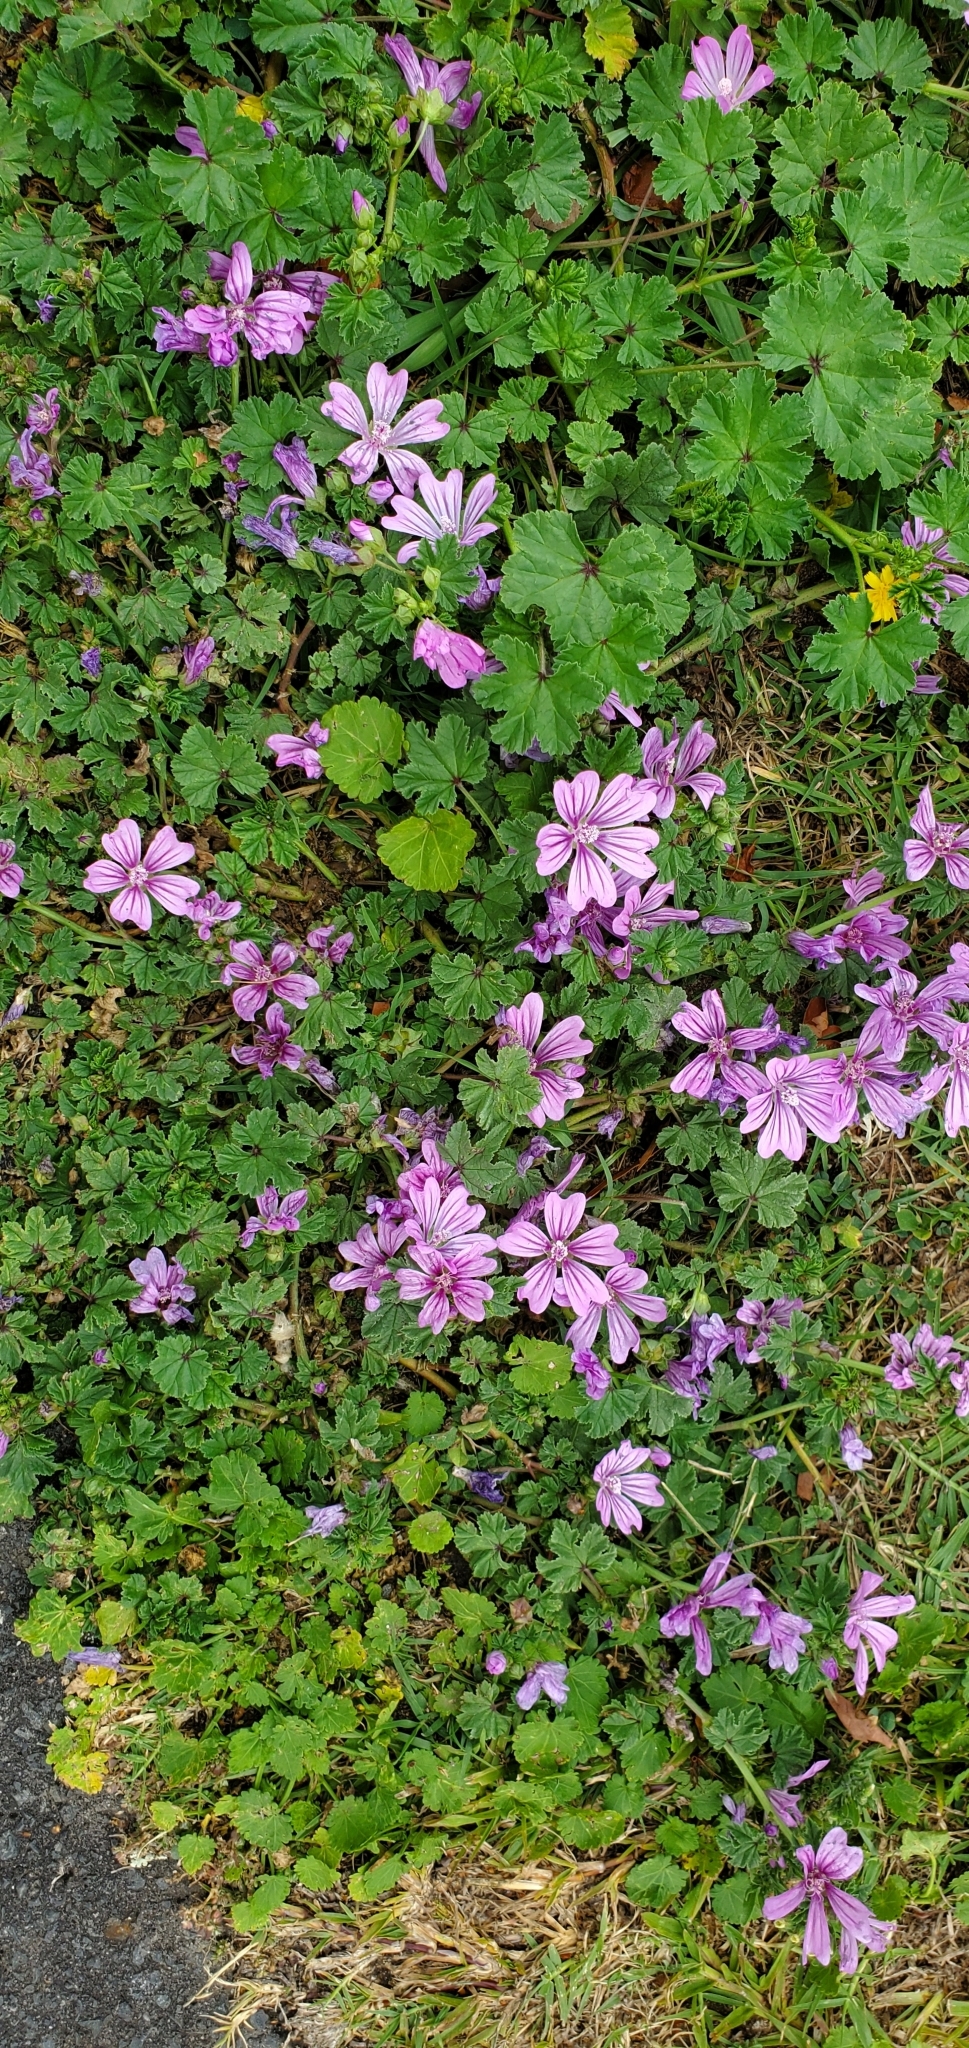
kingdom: Plantae
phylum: Tracheophyta
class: Magnoliopsida
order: Malvales
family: Malvaceae
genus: Malva
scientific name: Malva sylvestris
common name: Common mallow
